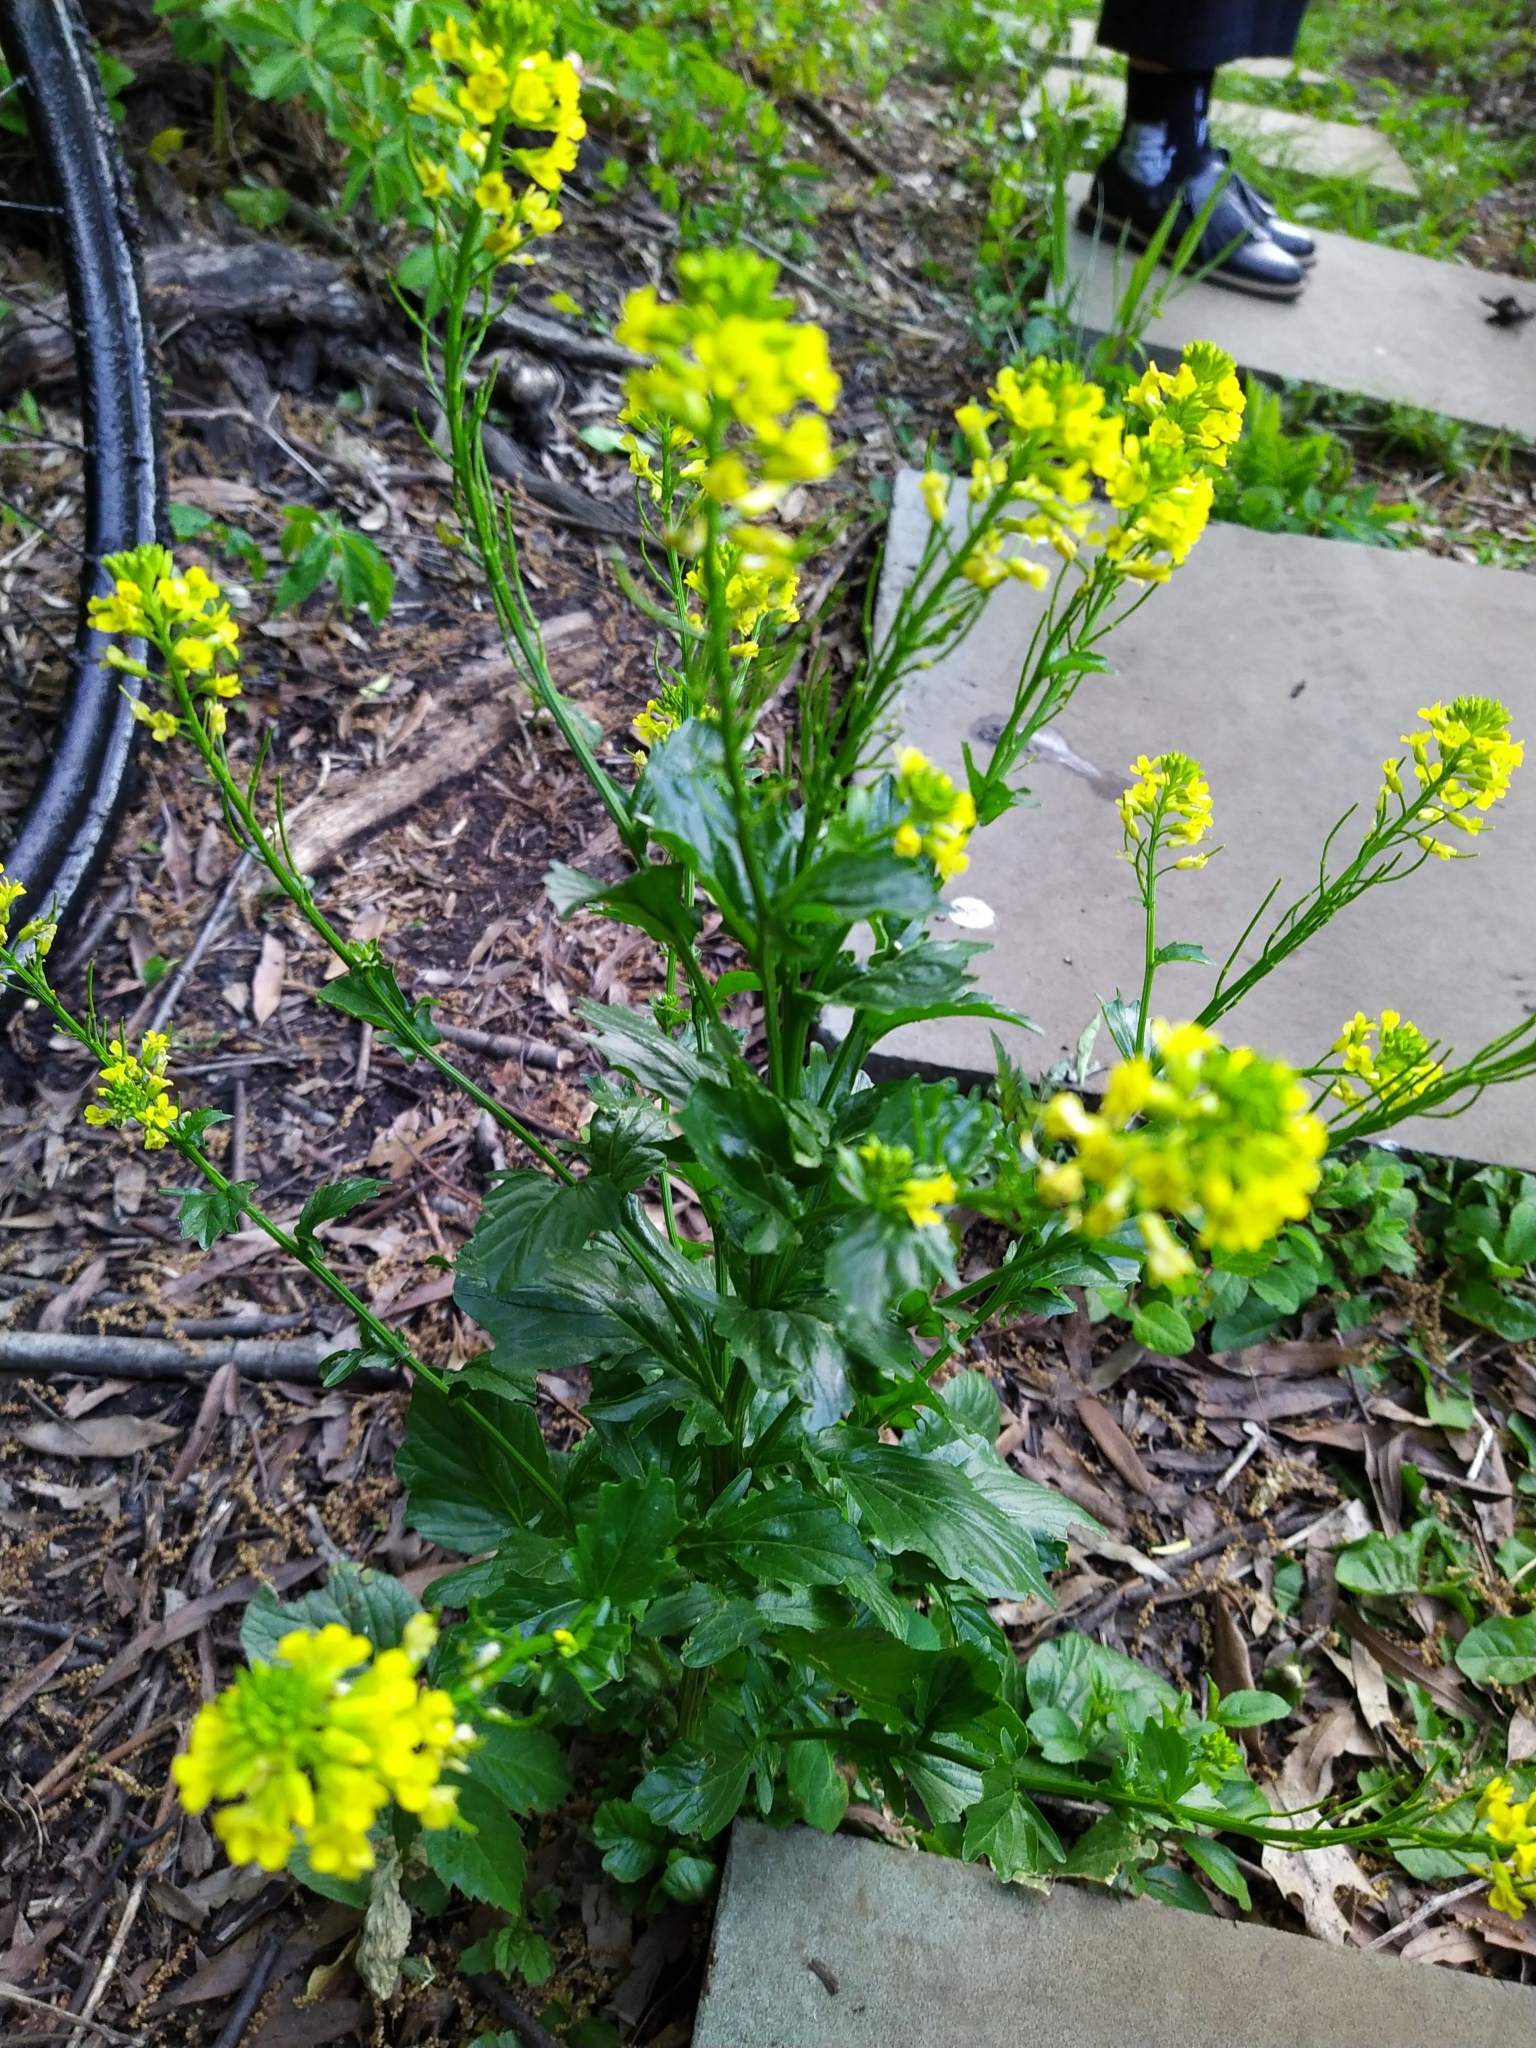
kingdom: Plantae
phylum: Tracheophyta
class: Magnoliopsida
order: Brassicales
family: Brassicaceae
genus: Barbarea
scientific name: Barbarea vulgaris
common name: Cressy-greens
